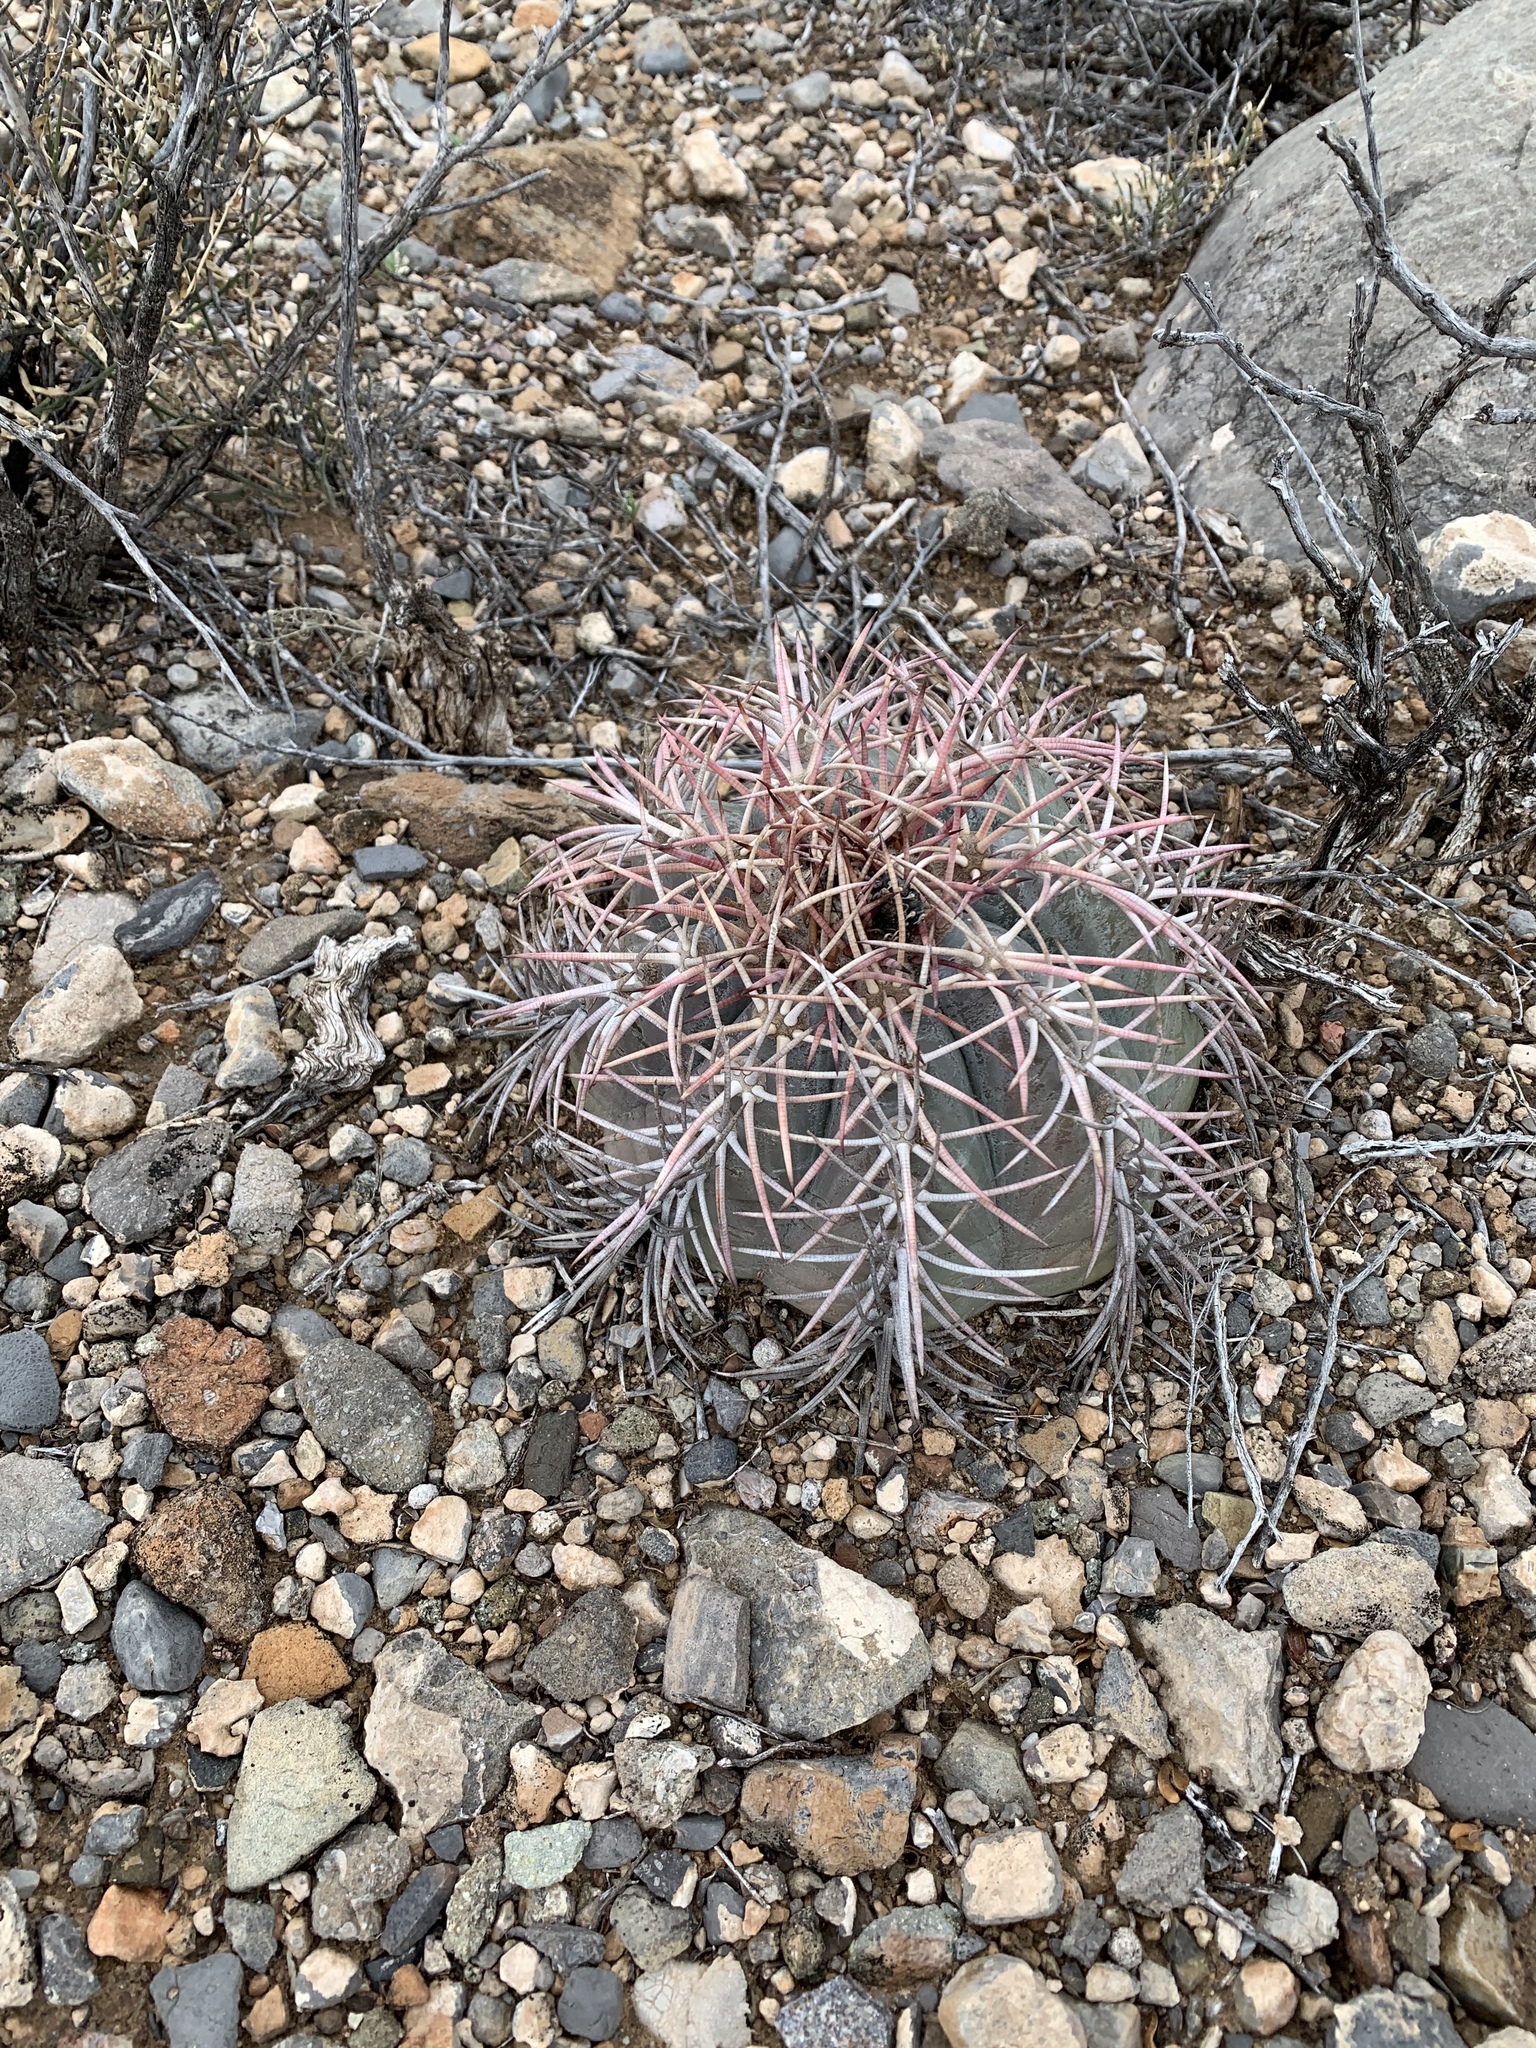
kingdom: Plantae
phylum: Tracheophyta
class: Magnoliopsida
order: Caryophyllales
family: Cactaceae
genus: Echinocactus
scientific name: Echinocactus horizonthalonius
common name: Devilshead
